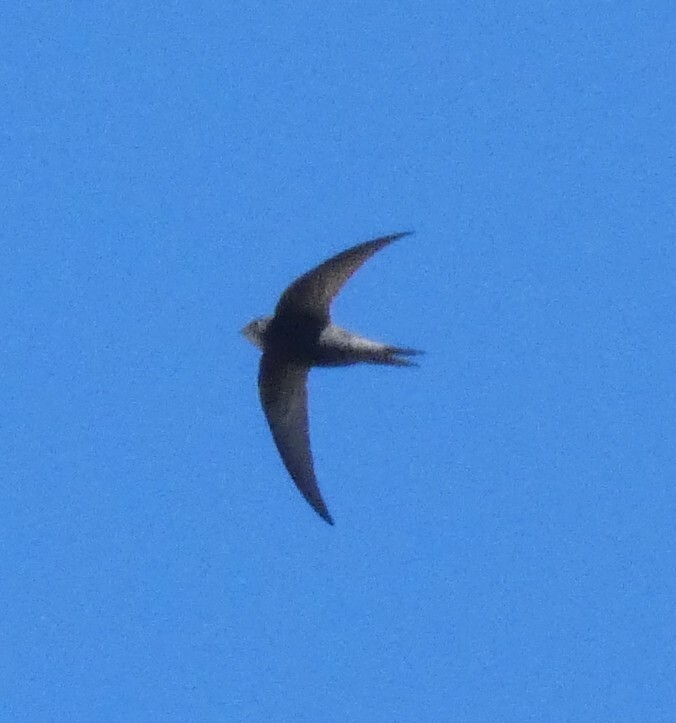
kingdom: Animalia
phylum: Chordata
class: Aves
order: Apodiformes
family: Apodidae
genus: Apus
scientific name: Apus apus
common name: Common swift
